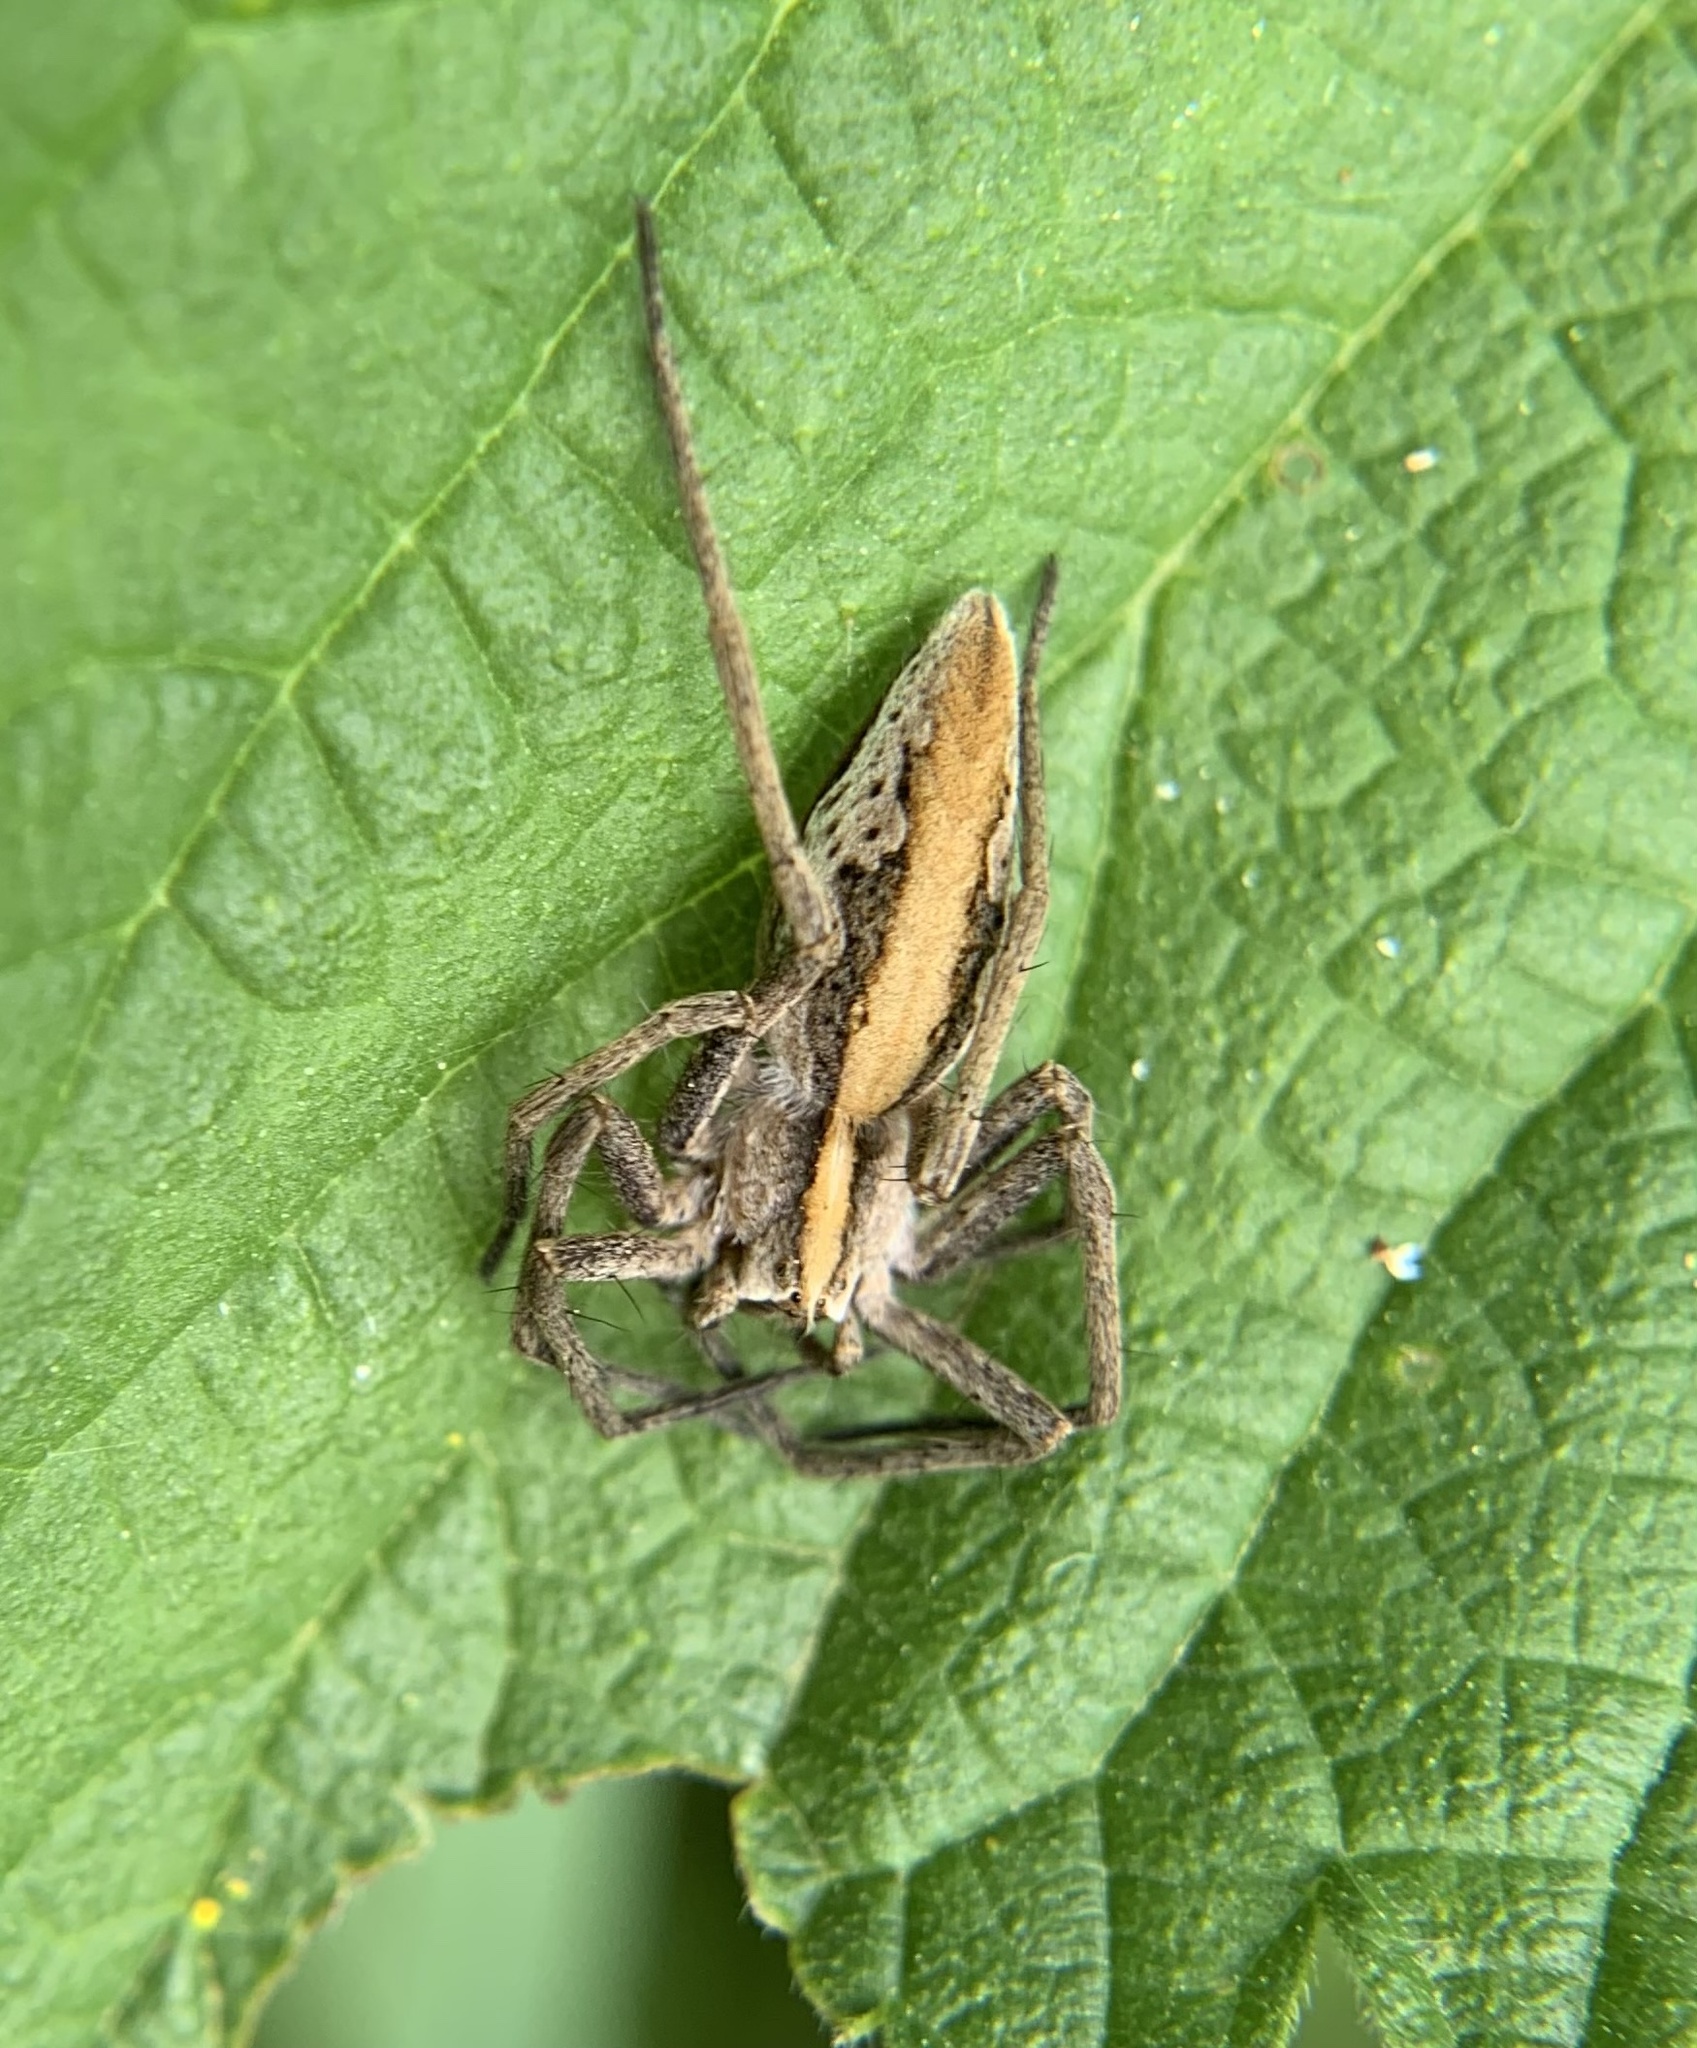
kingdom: Animalia
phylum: Arthropoda
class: Arachnida
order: Araneae
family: Pisauridae
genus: Pisaura
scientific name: Pisaura mirabilis
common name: Tent spider
